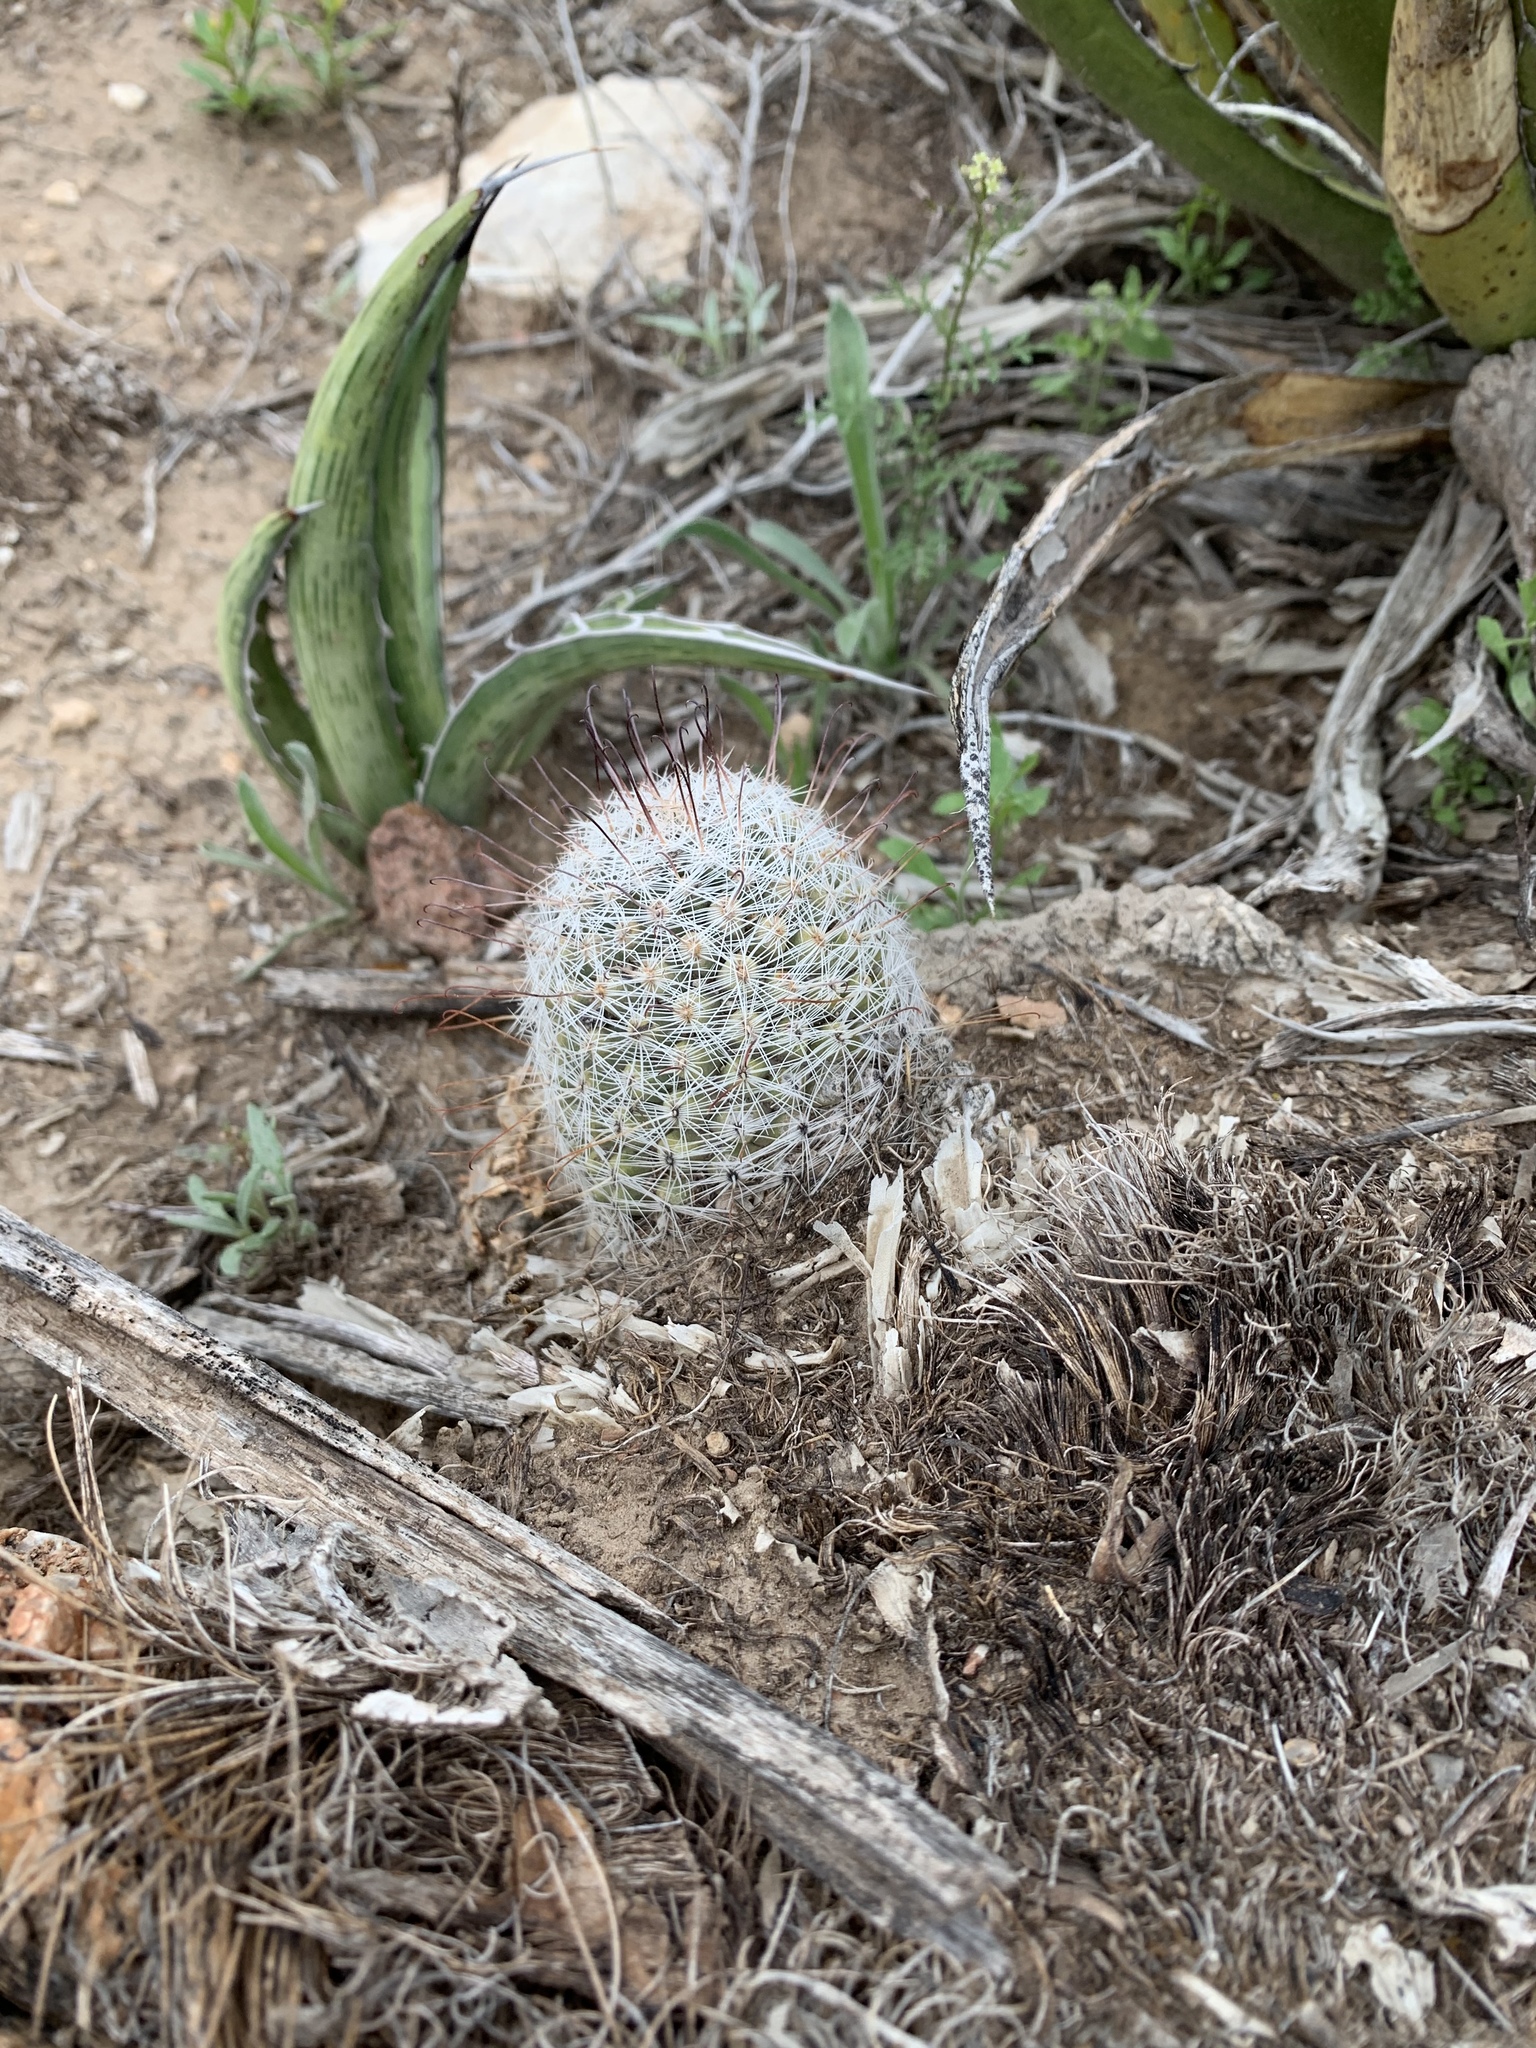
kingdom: Plantae
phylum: Tracheophyta
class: Magnoliopsida
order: Caryophyllales
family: Cactaceae
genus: Cochemiea
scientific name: Cochemiea grahamii
